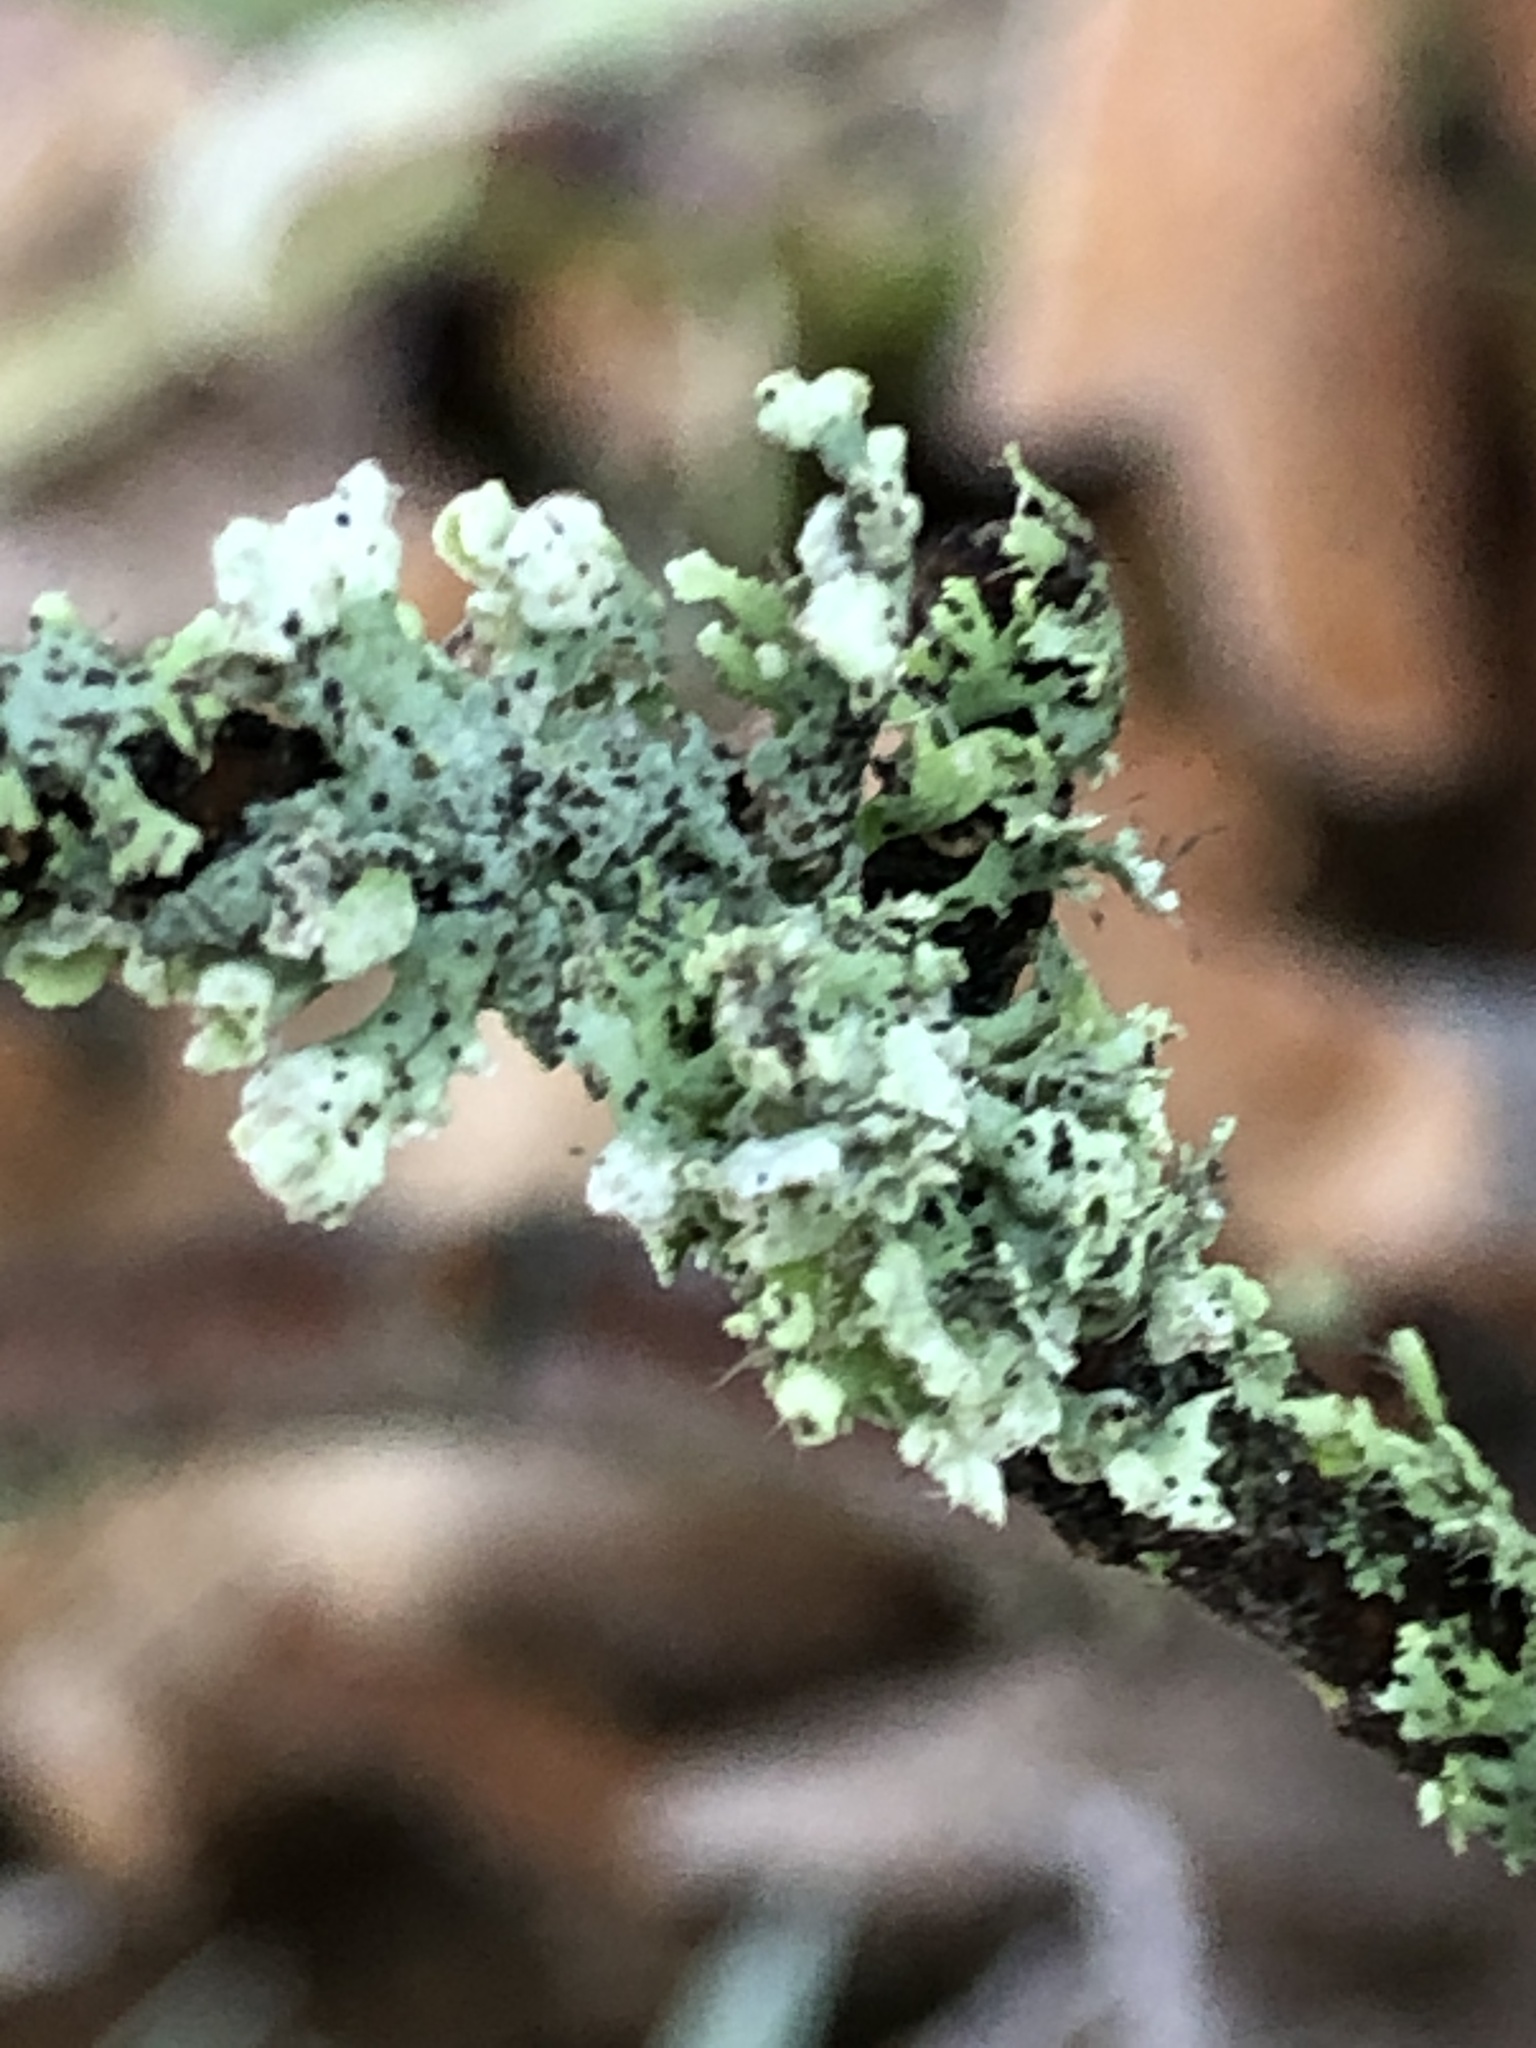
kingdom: Fungi
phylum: Ascomycota
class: Lecanoromycetes
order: Caliciales
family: Physciaceae
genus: Physcia
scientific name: Physcia adscendens
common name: Hooded rosette lichen
